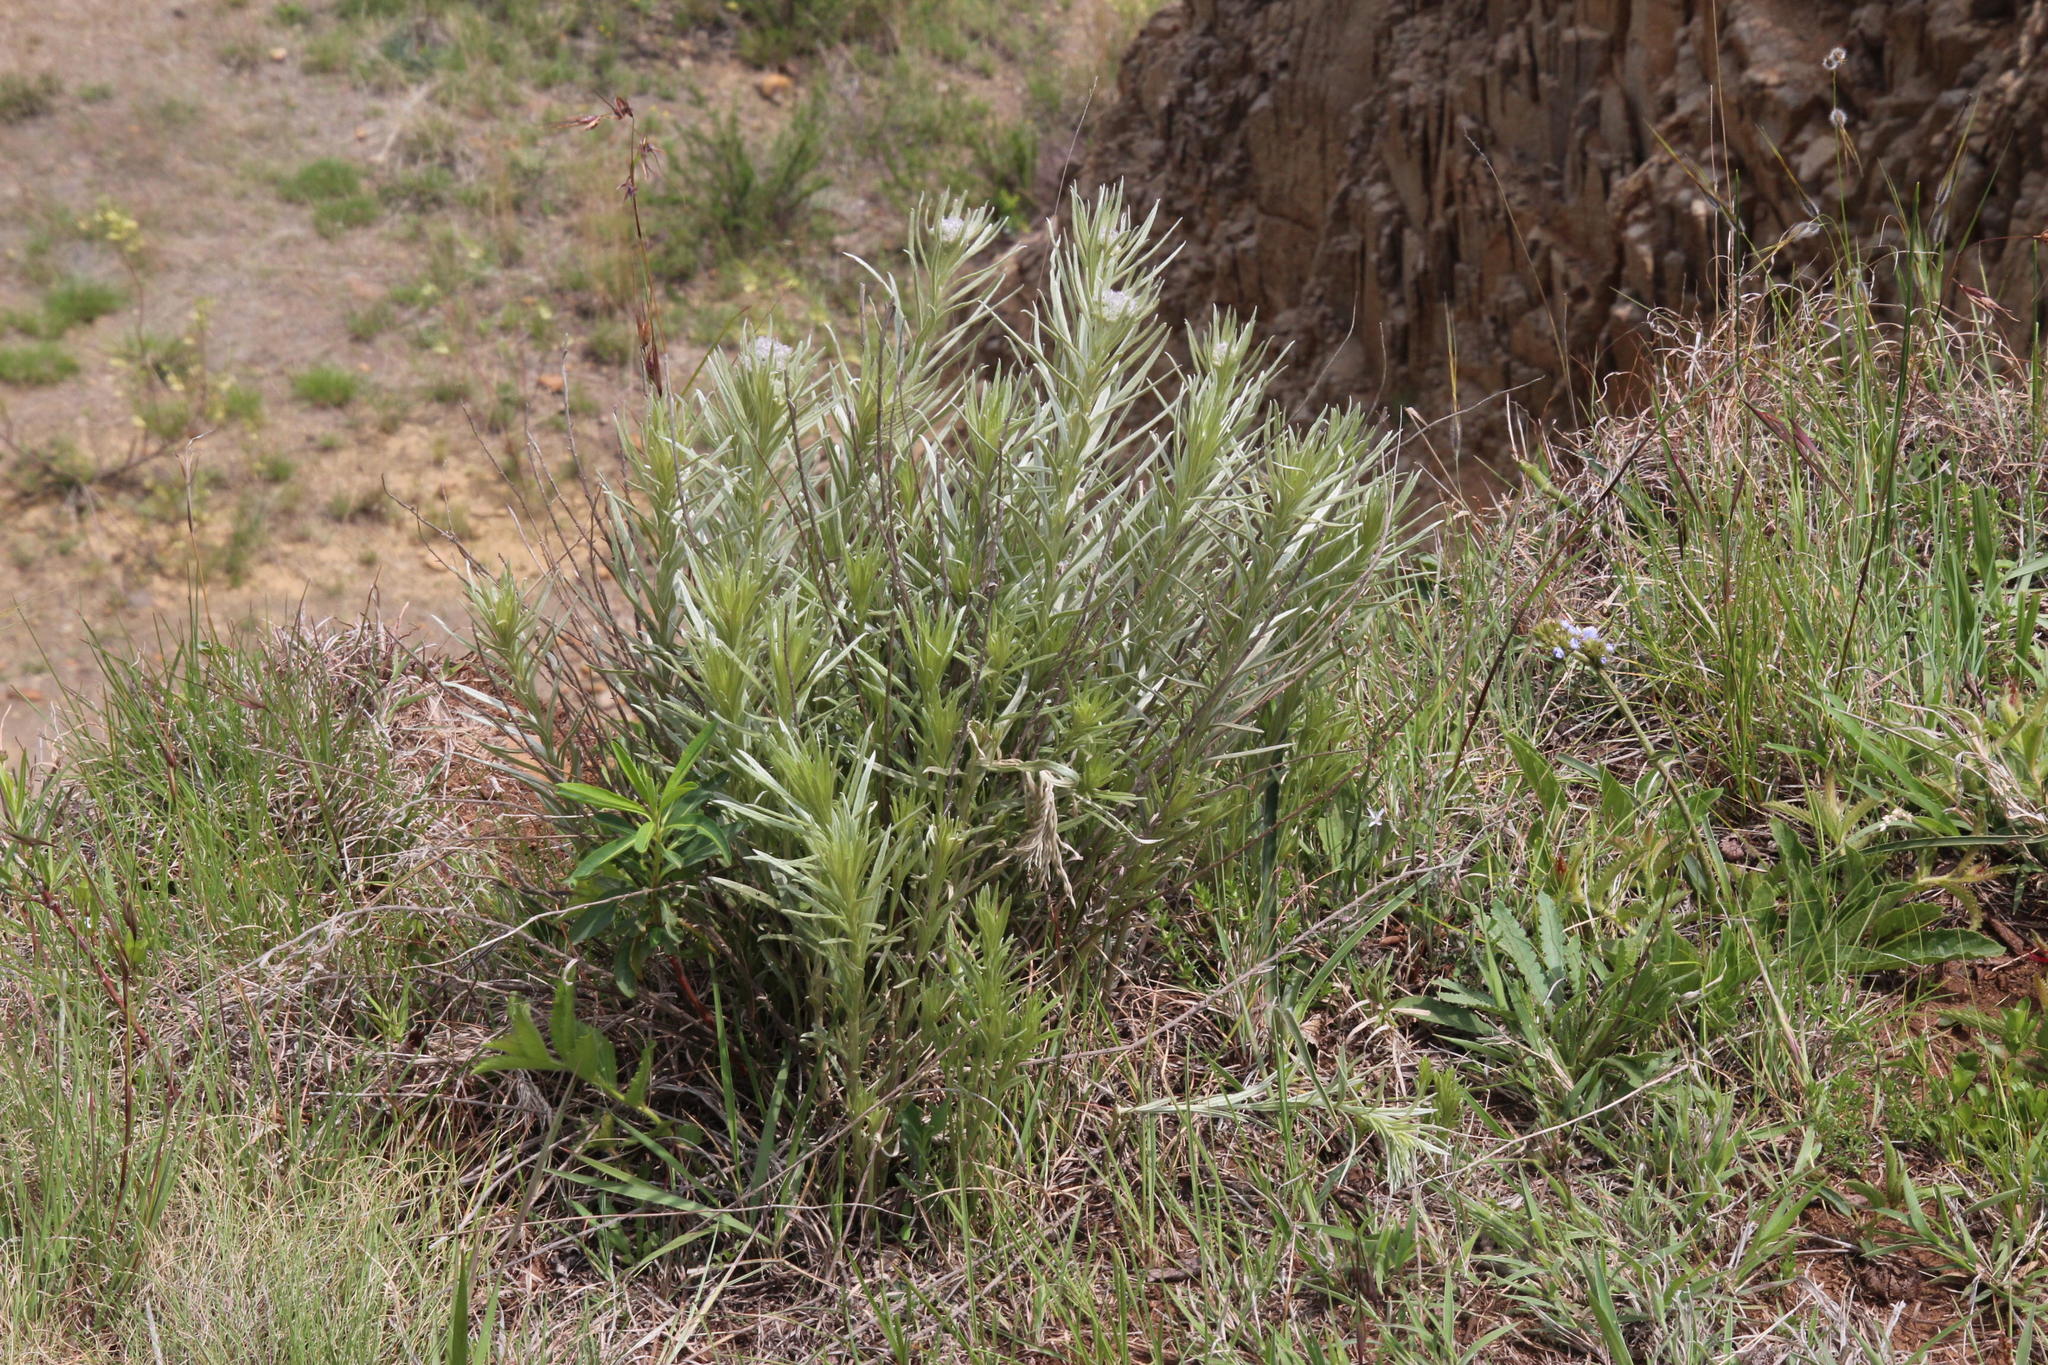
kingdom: Plantae
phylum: Tracheophyta
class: Magnoliopsida
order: Asterales
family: Asteraceae
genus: Hilliardiella
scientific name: Hilliardiella aristata
